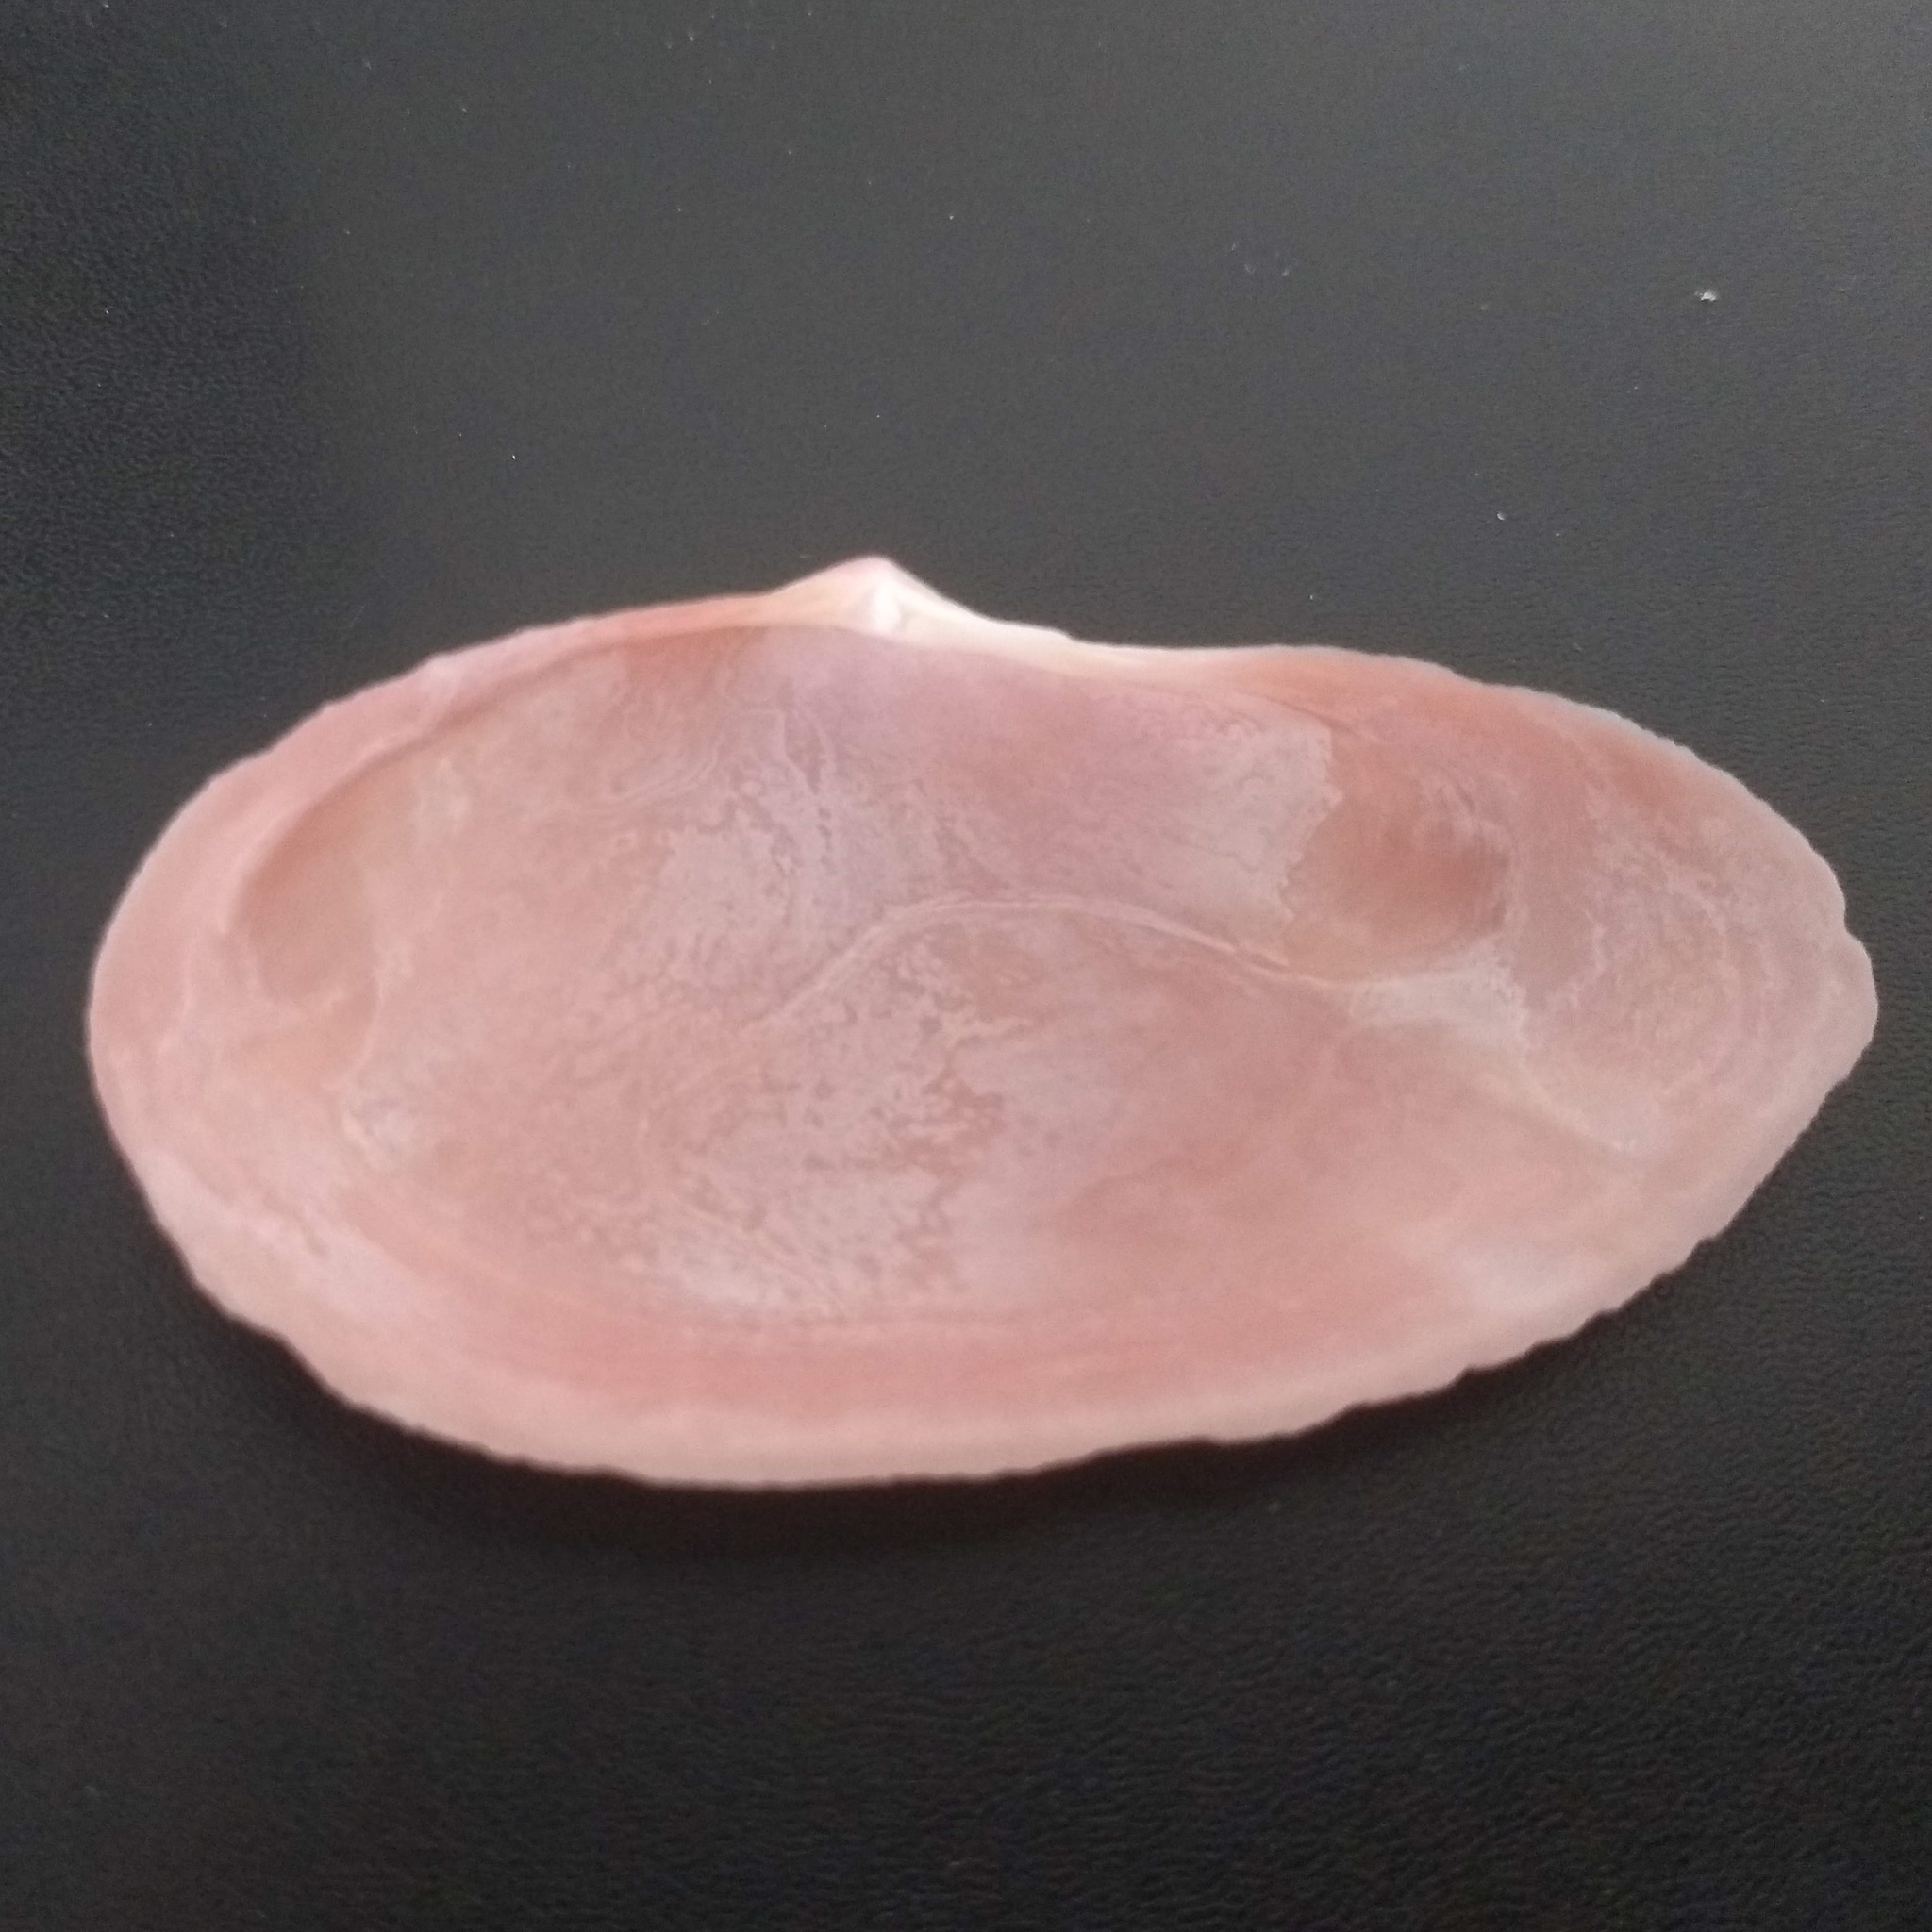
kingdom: Animalia
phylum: Mollusca
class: Bivalvia
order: Cardiida
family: Psammobiidae
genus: Psammotella
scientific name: Psammotella cruenta
